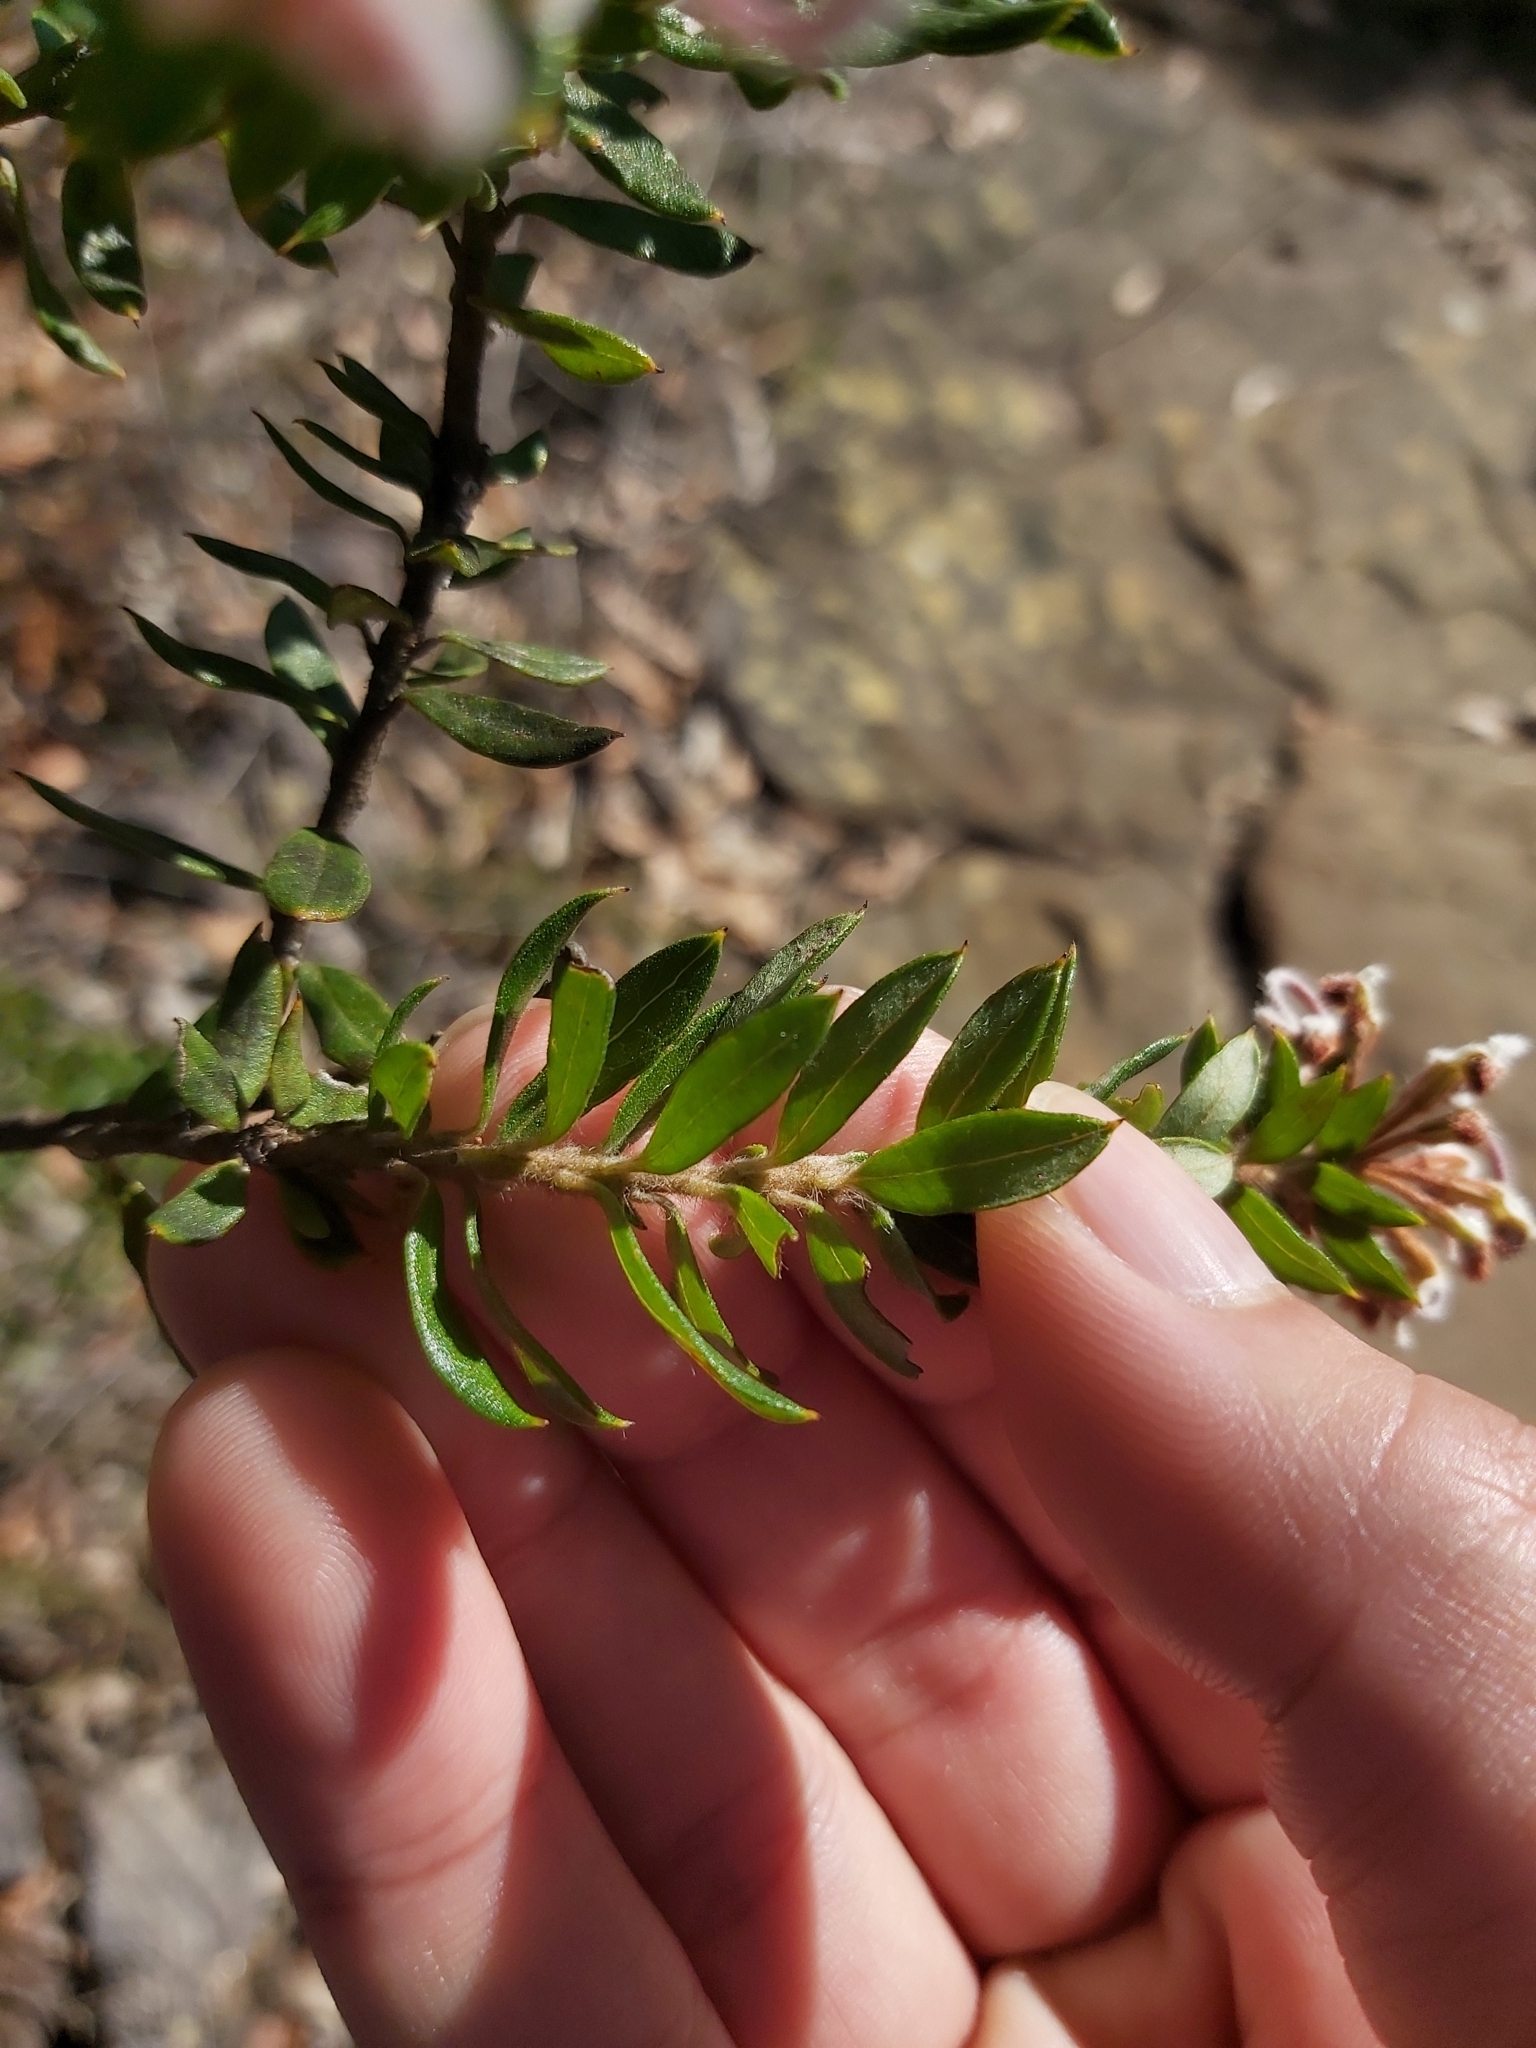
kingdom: Plantae
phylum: Tracheophyta
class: Magnoliopsida
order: Proteales
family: Proteaceae
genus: Grevillea
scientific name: Grevillea buxifolia
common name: Grey spiderflower
